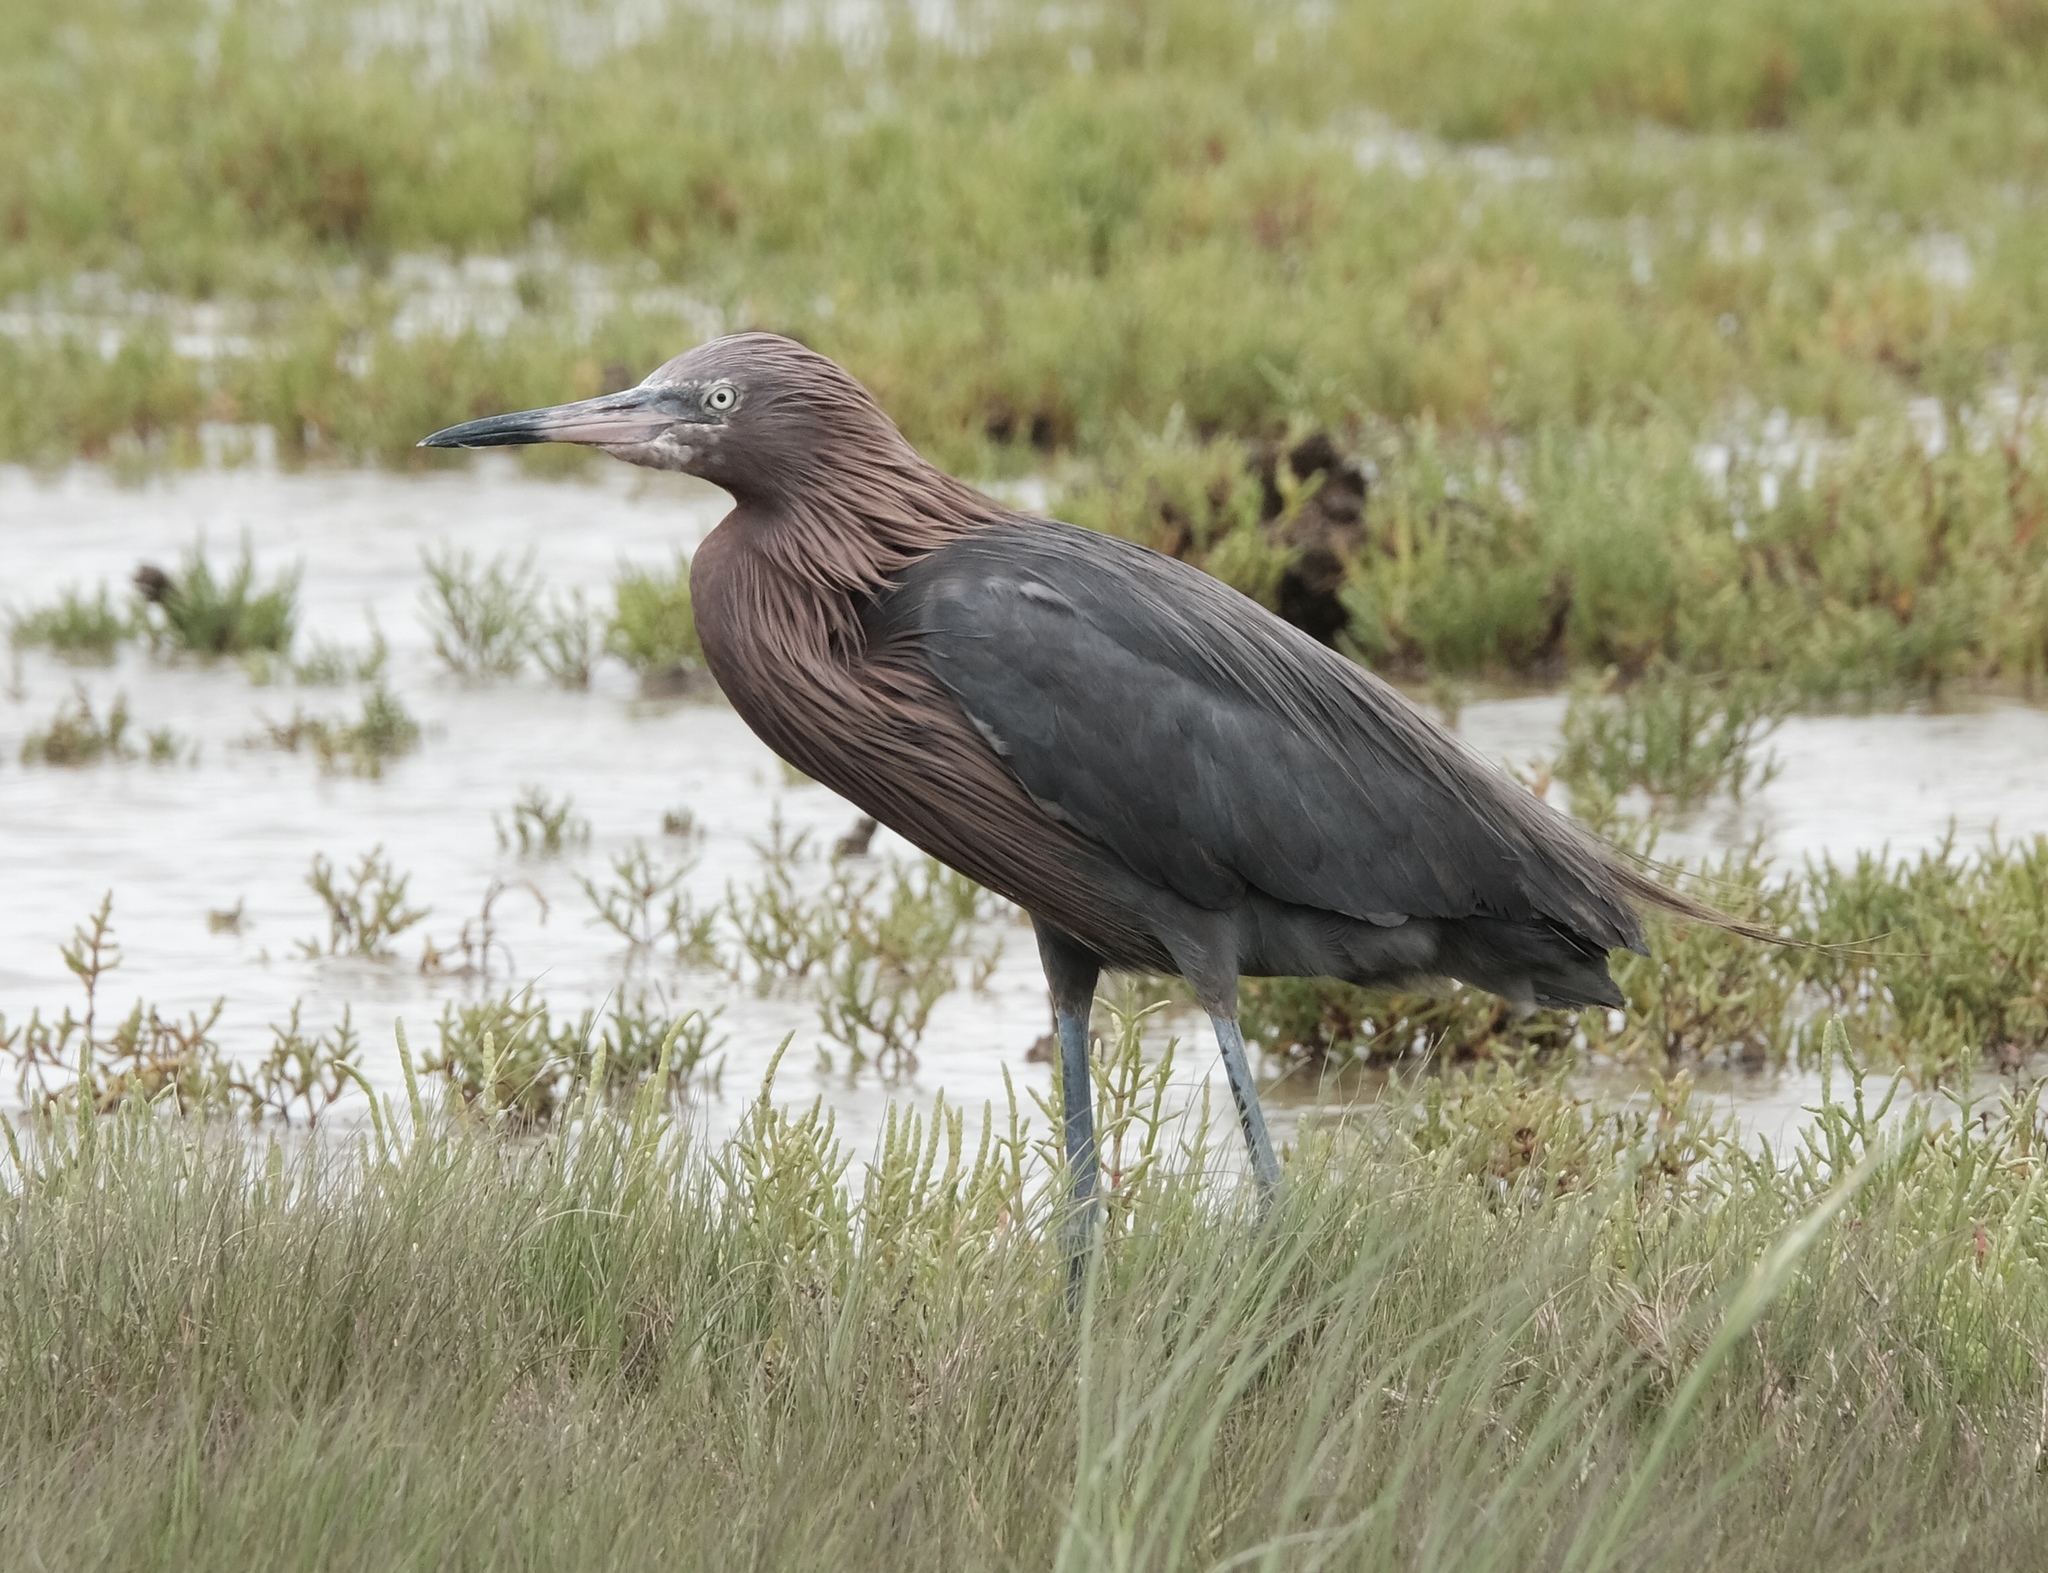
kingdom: Animalia
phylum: Chordata
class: Aves
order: Pelecaniformes
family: Ardeidae
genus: Egretta
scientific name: Egretta rufescens
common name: Reddish egret
